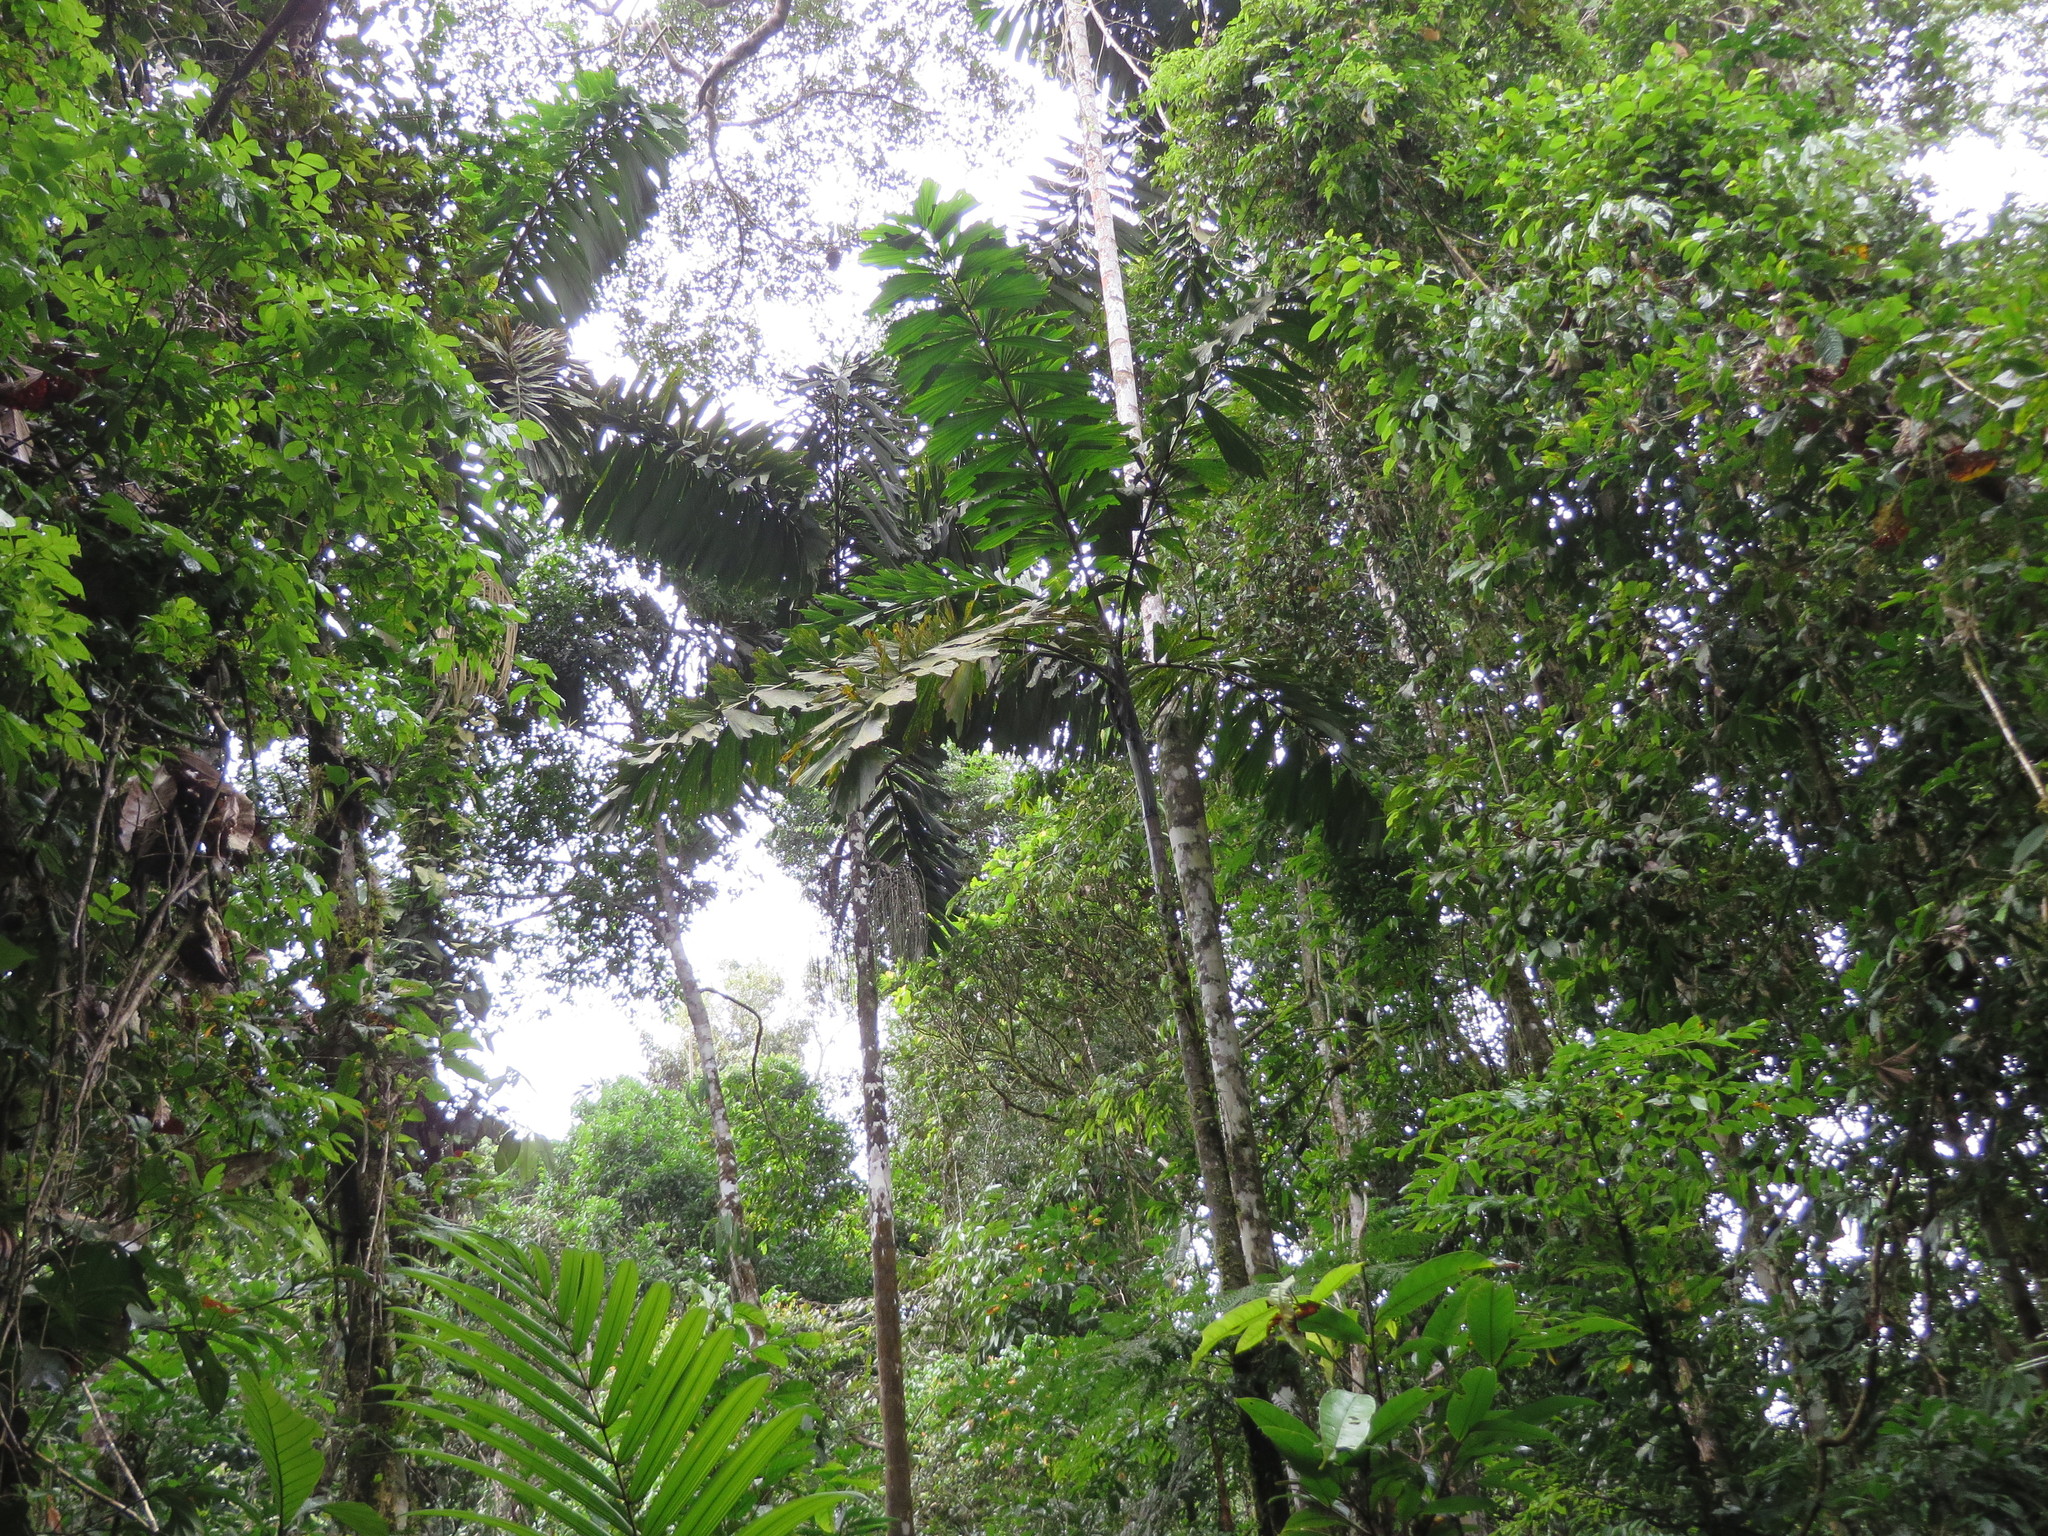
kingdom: Plantae
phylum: Tracheophyta
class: Liliopsida
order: Arecales
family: Arecaceae
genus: Iriartea
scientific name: Iriartea deltoidea
